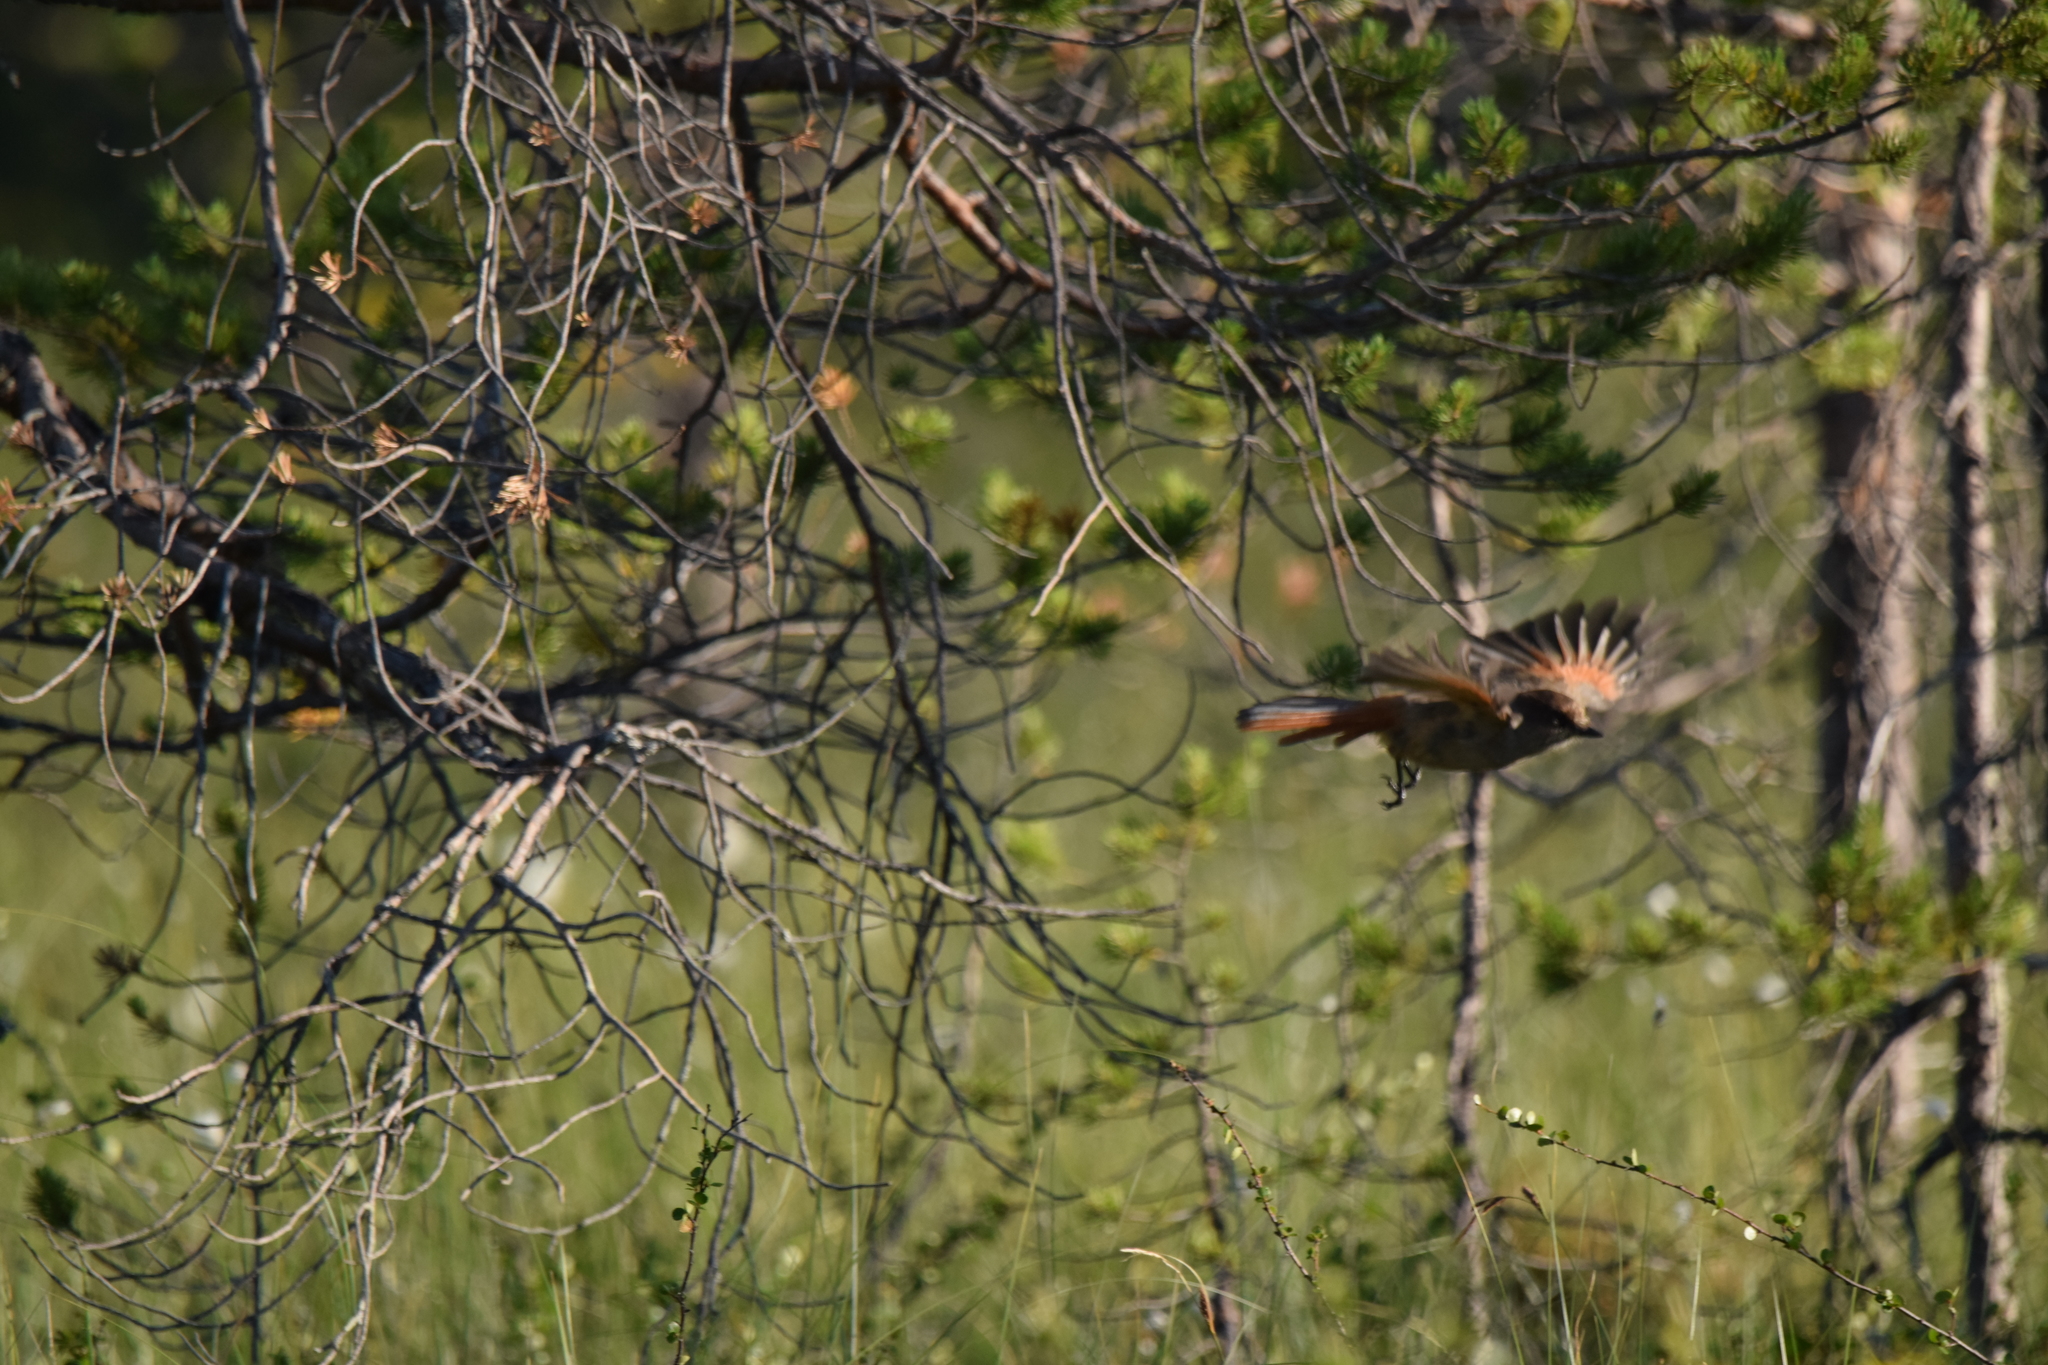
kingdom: Animalia
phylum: Chordata
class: Aves
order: Passeriformes
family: Corvidae
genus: Perisoreus
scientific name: Perisoreus infaustus
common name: Siberian jay
